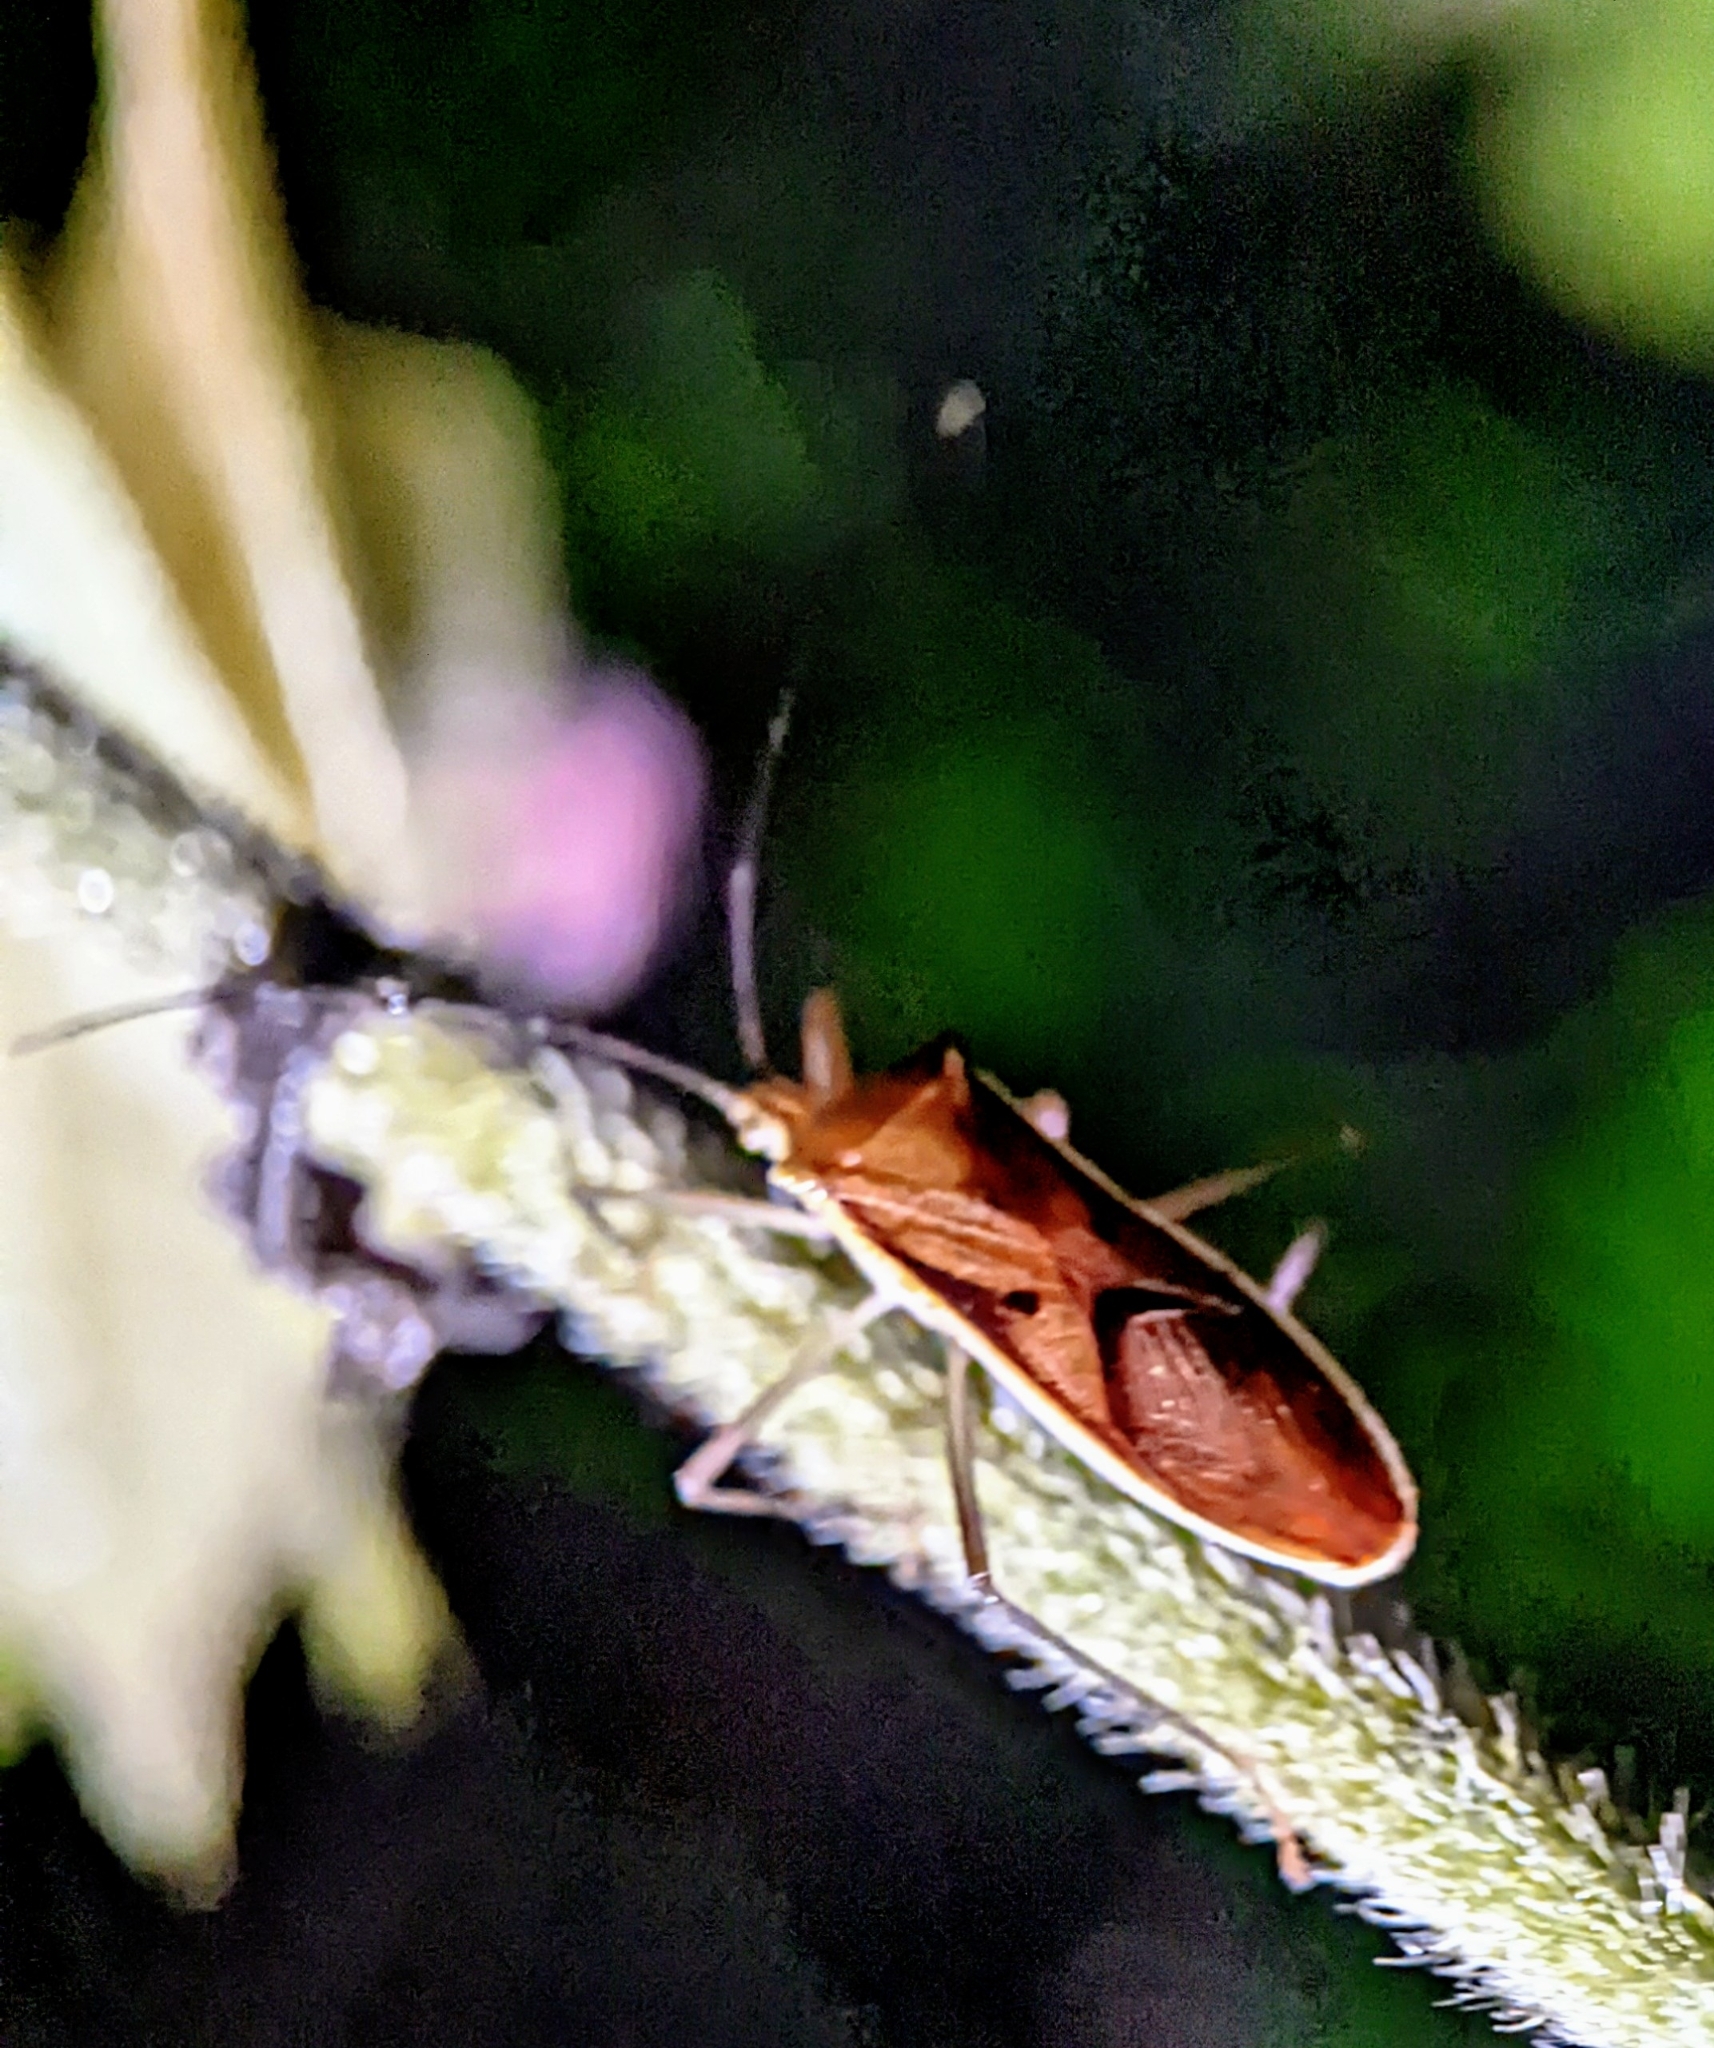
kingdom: Animalia
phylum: Arthropoda
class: Insecta
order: Hemiptera
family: Coreidae
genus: Homoeocerus
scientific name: Homoeocerus limbatipennis
